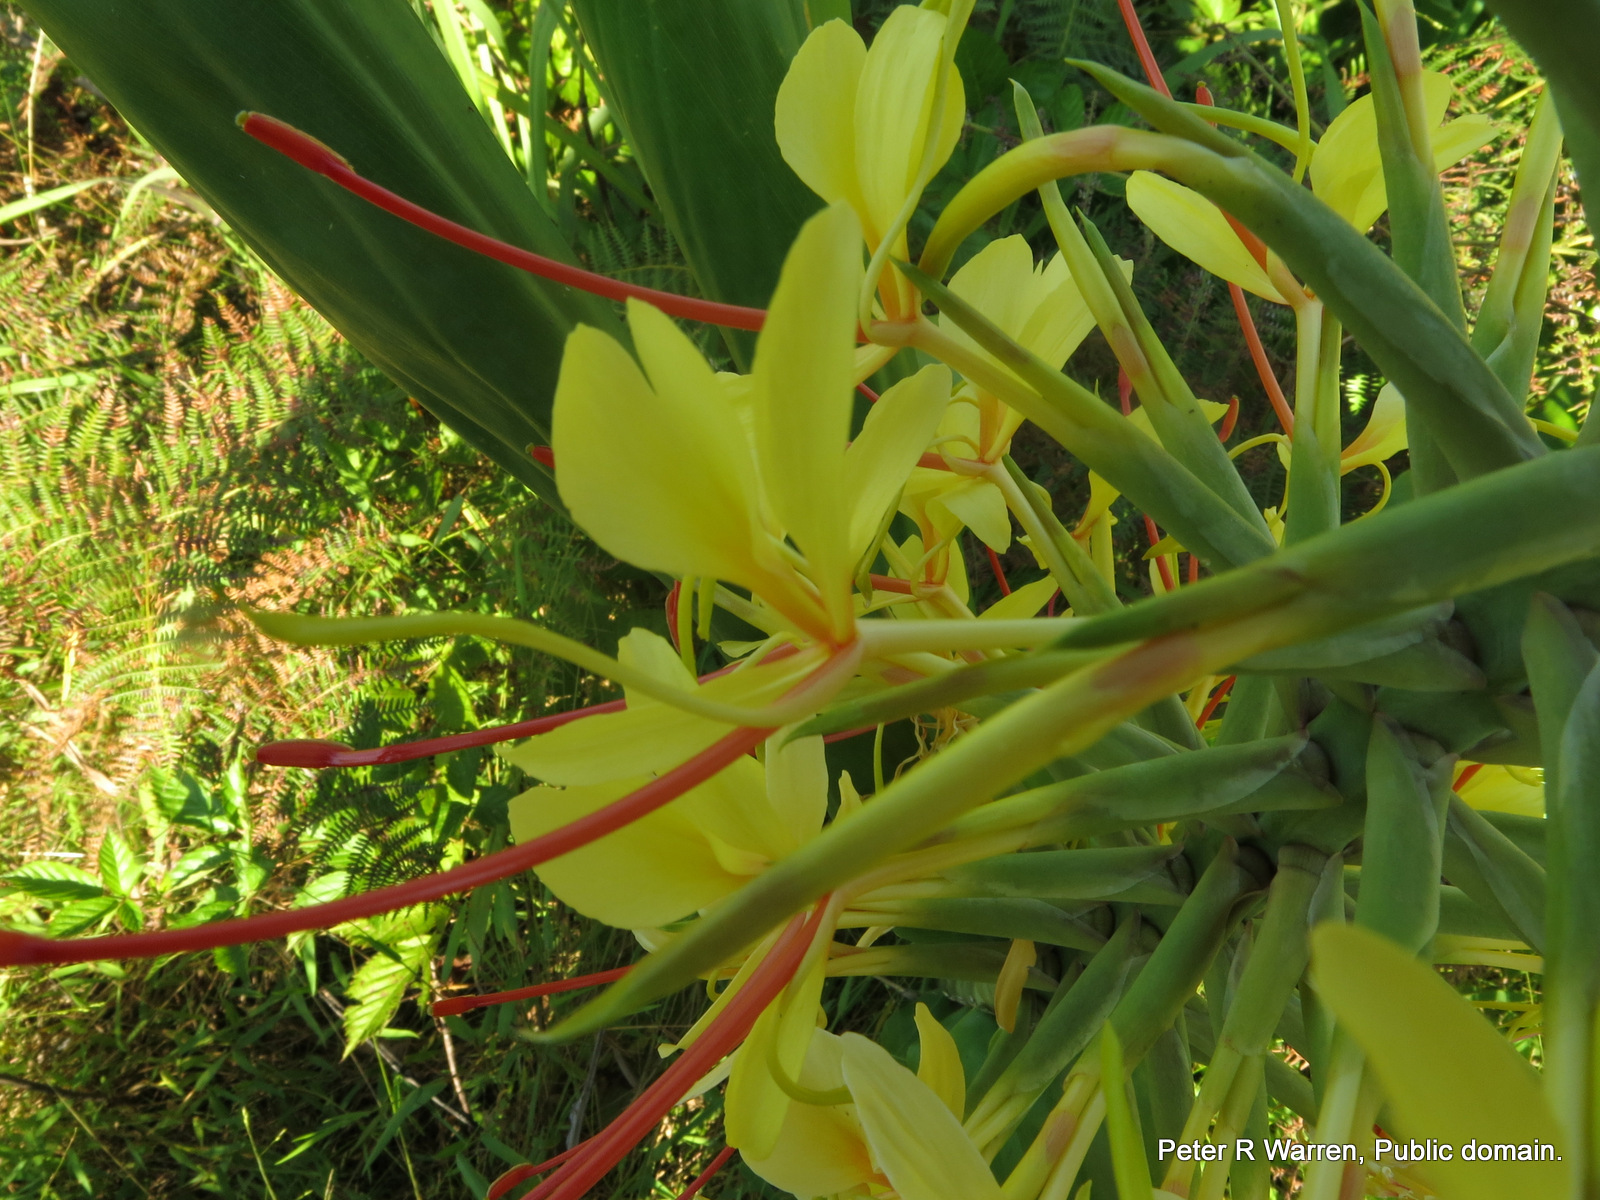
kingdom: Plantae
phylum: Tracheophyta
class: Liliopsida
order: Zingiberales
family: Zingiberaceae
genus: Hedychium
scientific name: Hedychium gardnerianum
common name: Himalayan ginger
